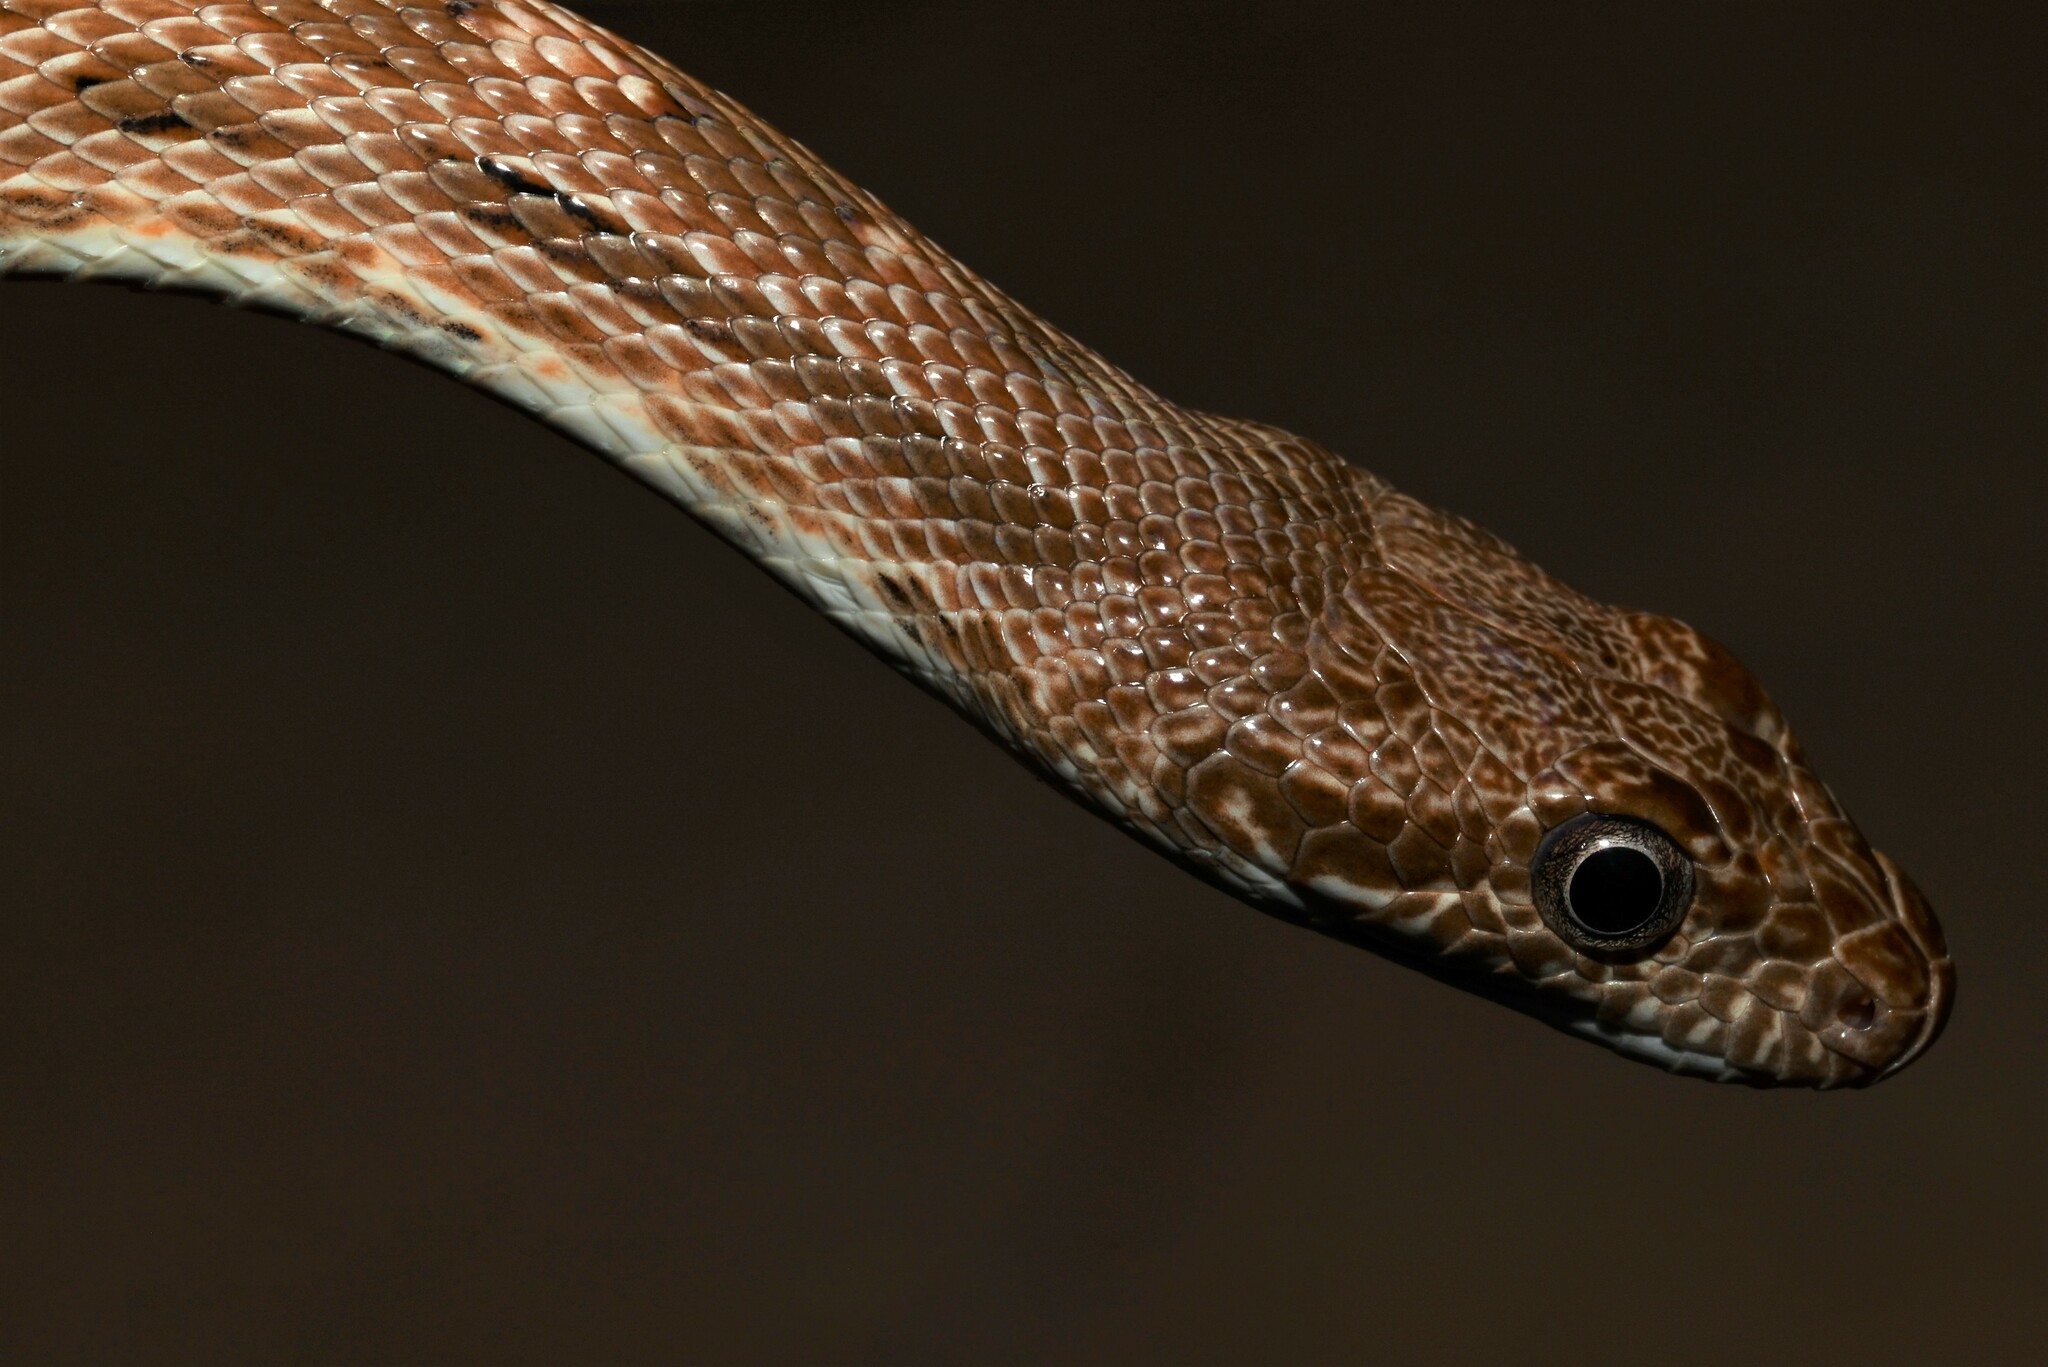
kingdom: Animalia
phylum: Chordata
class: Squamata
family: Colubridae
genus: Spalerosophis
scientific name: Spalerosophis diadema
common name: Diadem snake
